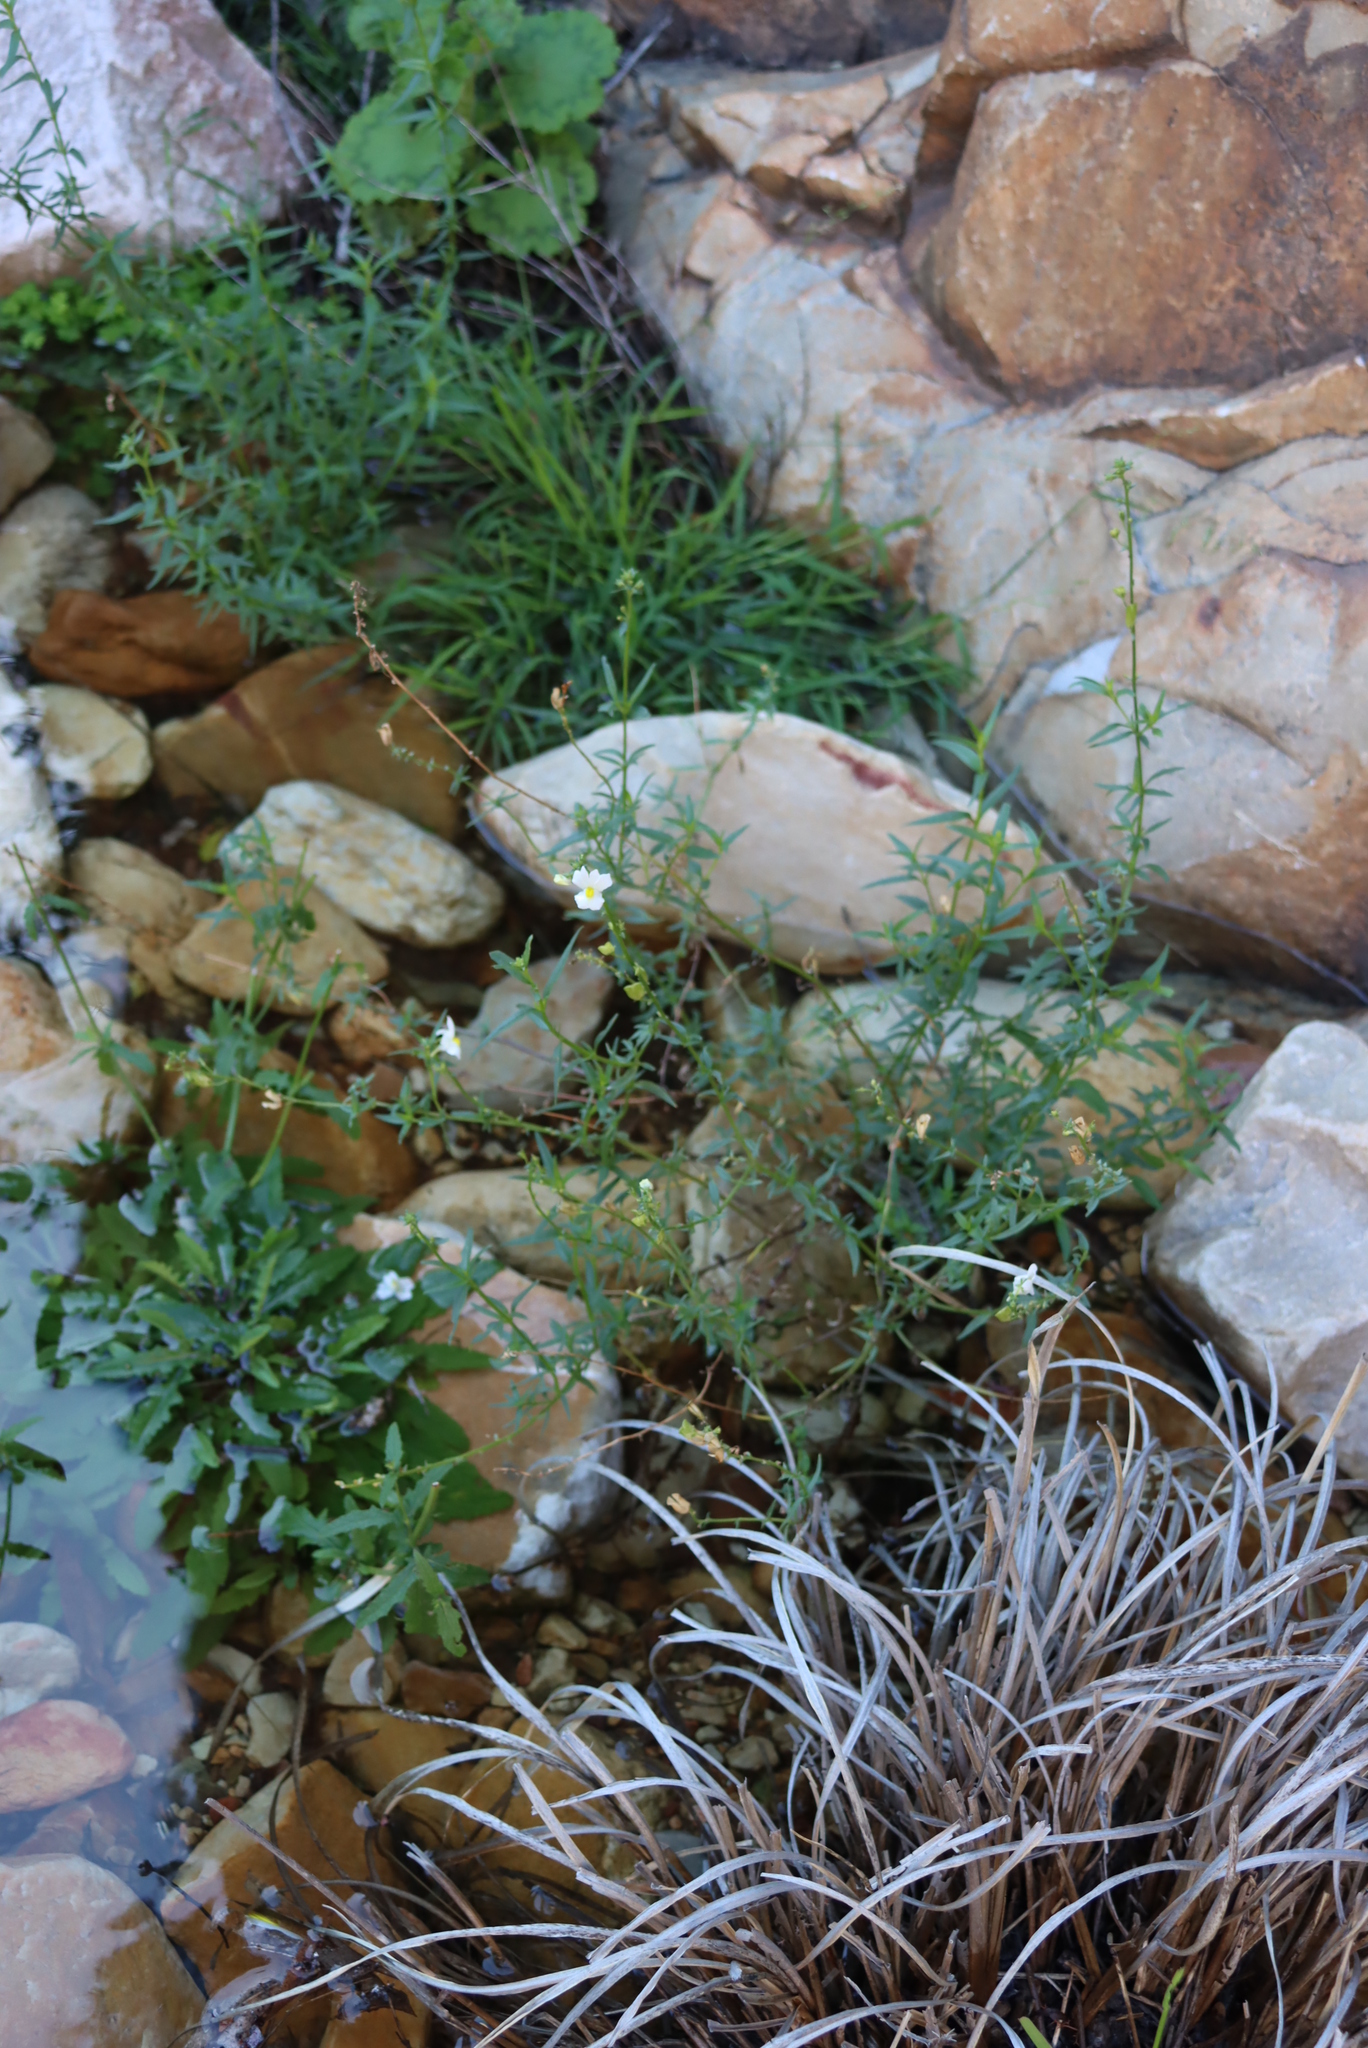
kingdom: Plantae
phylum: Tracheophyta
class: Magnoliopsida
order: Lamiales
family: Scrophulariaceae
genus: Nemesia
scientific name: Nemesia fruticans
